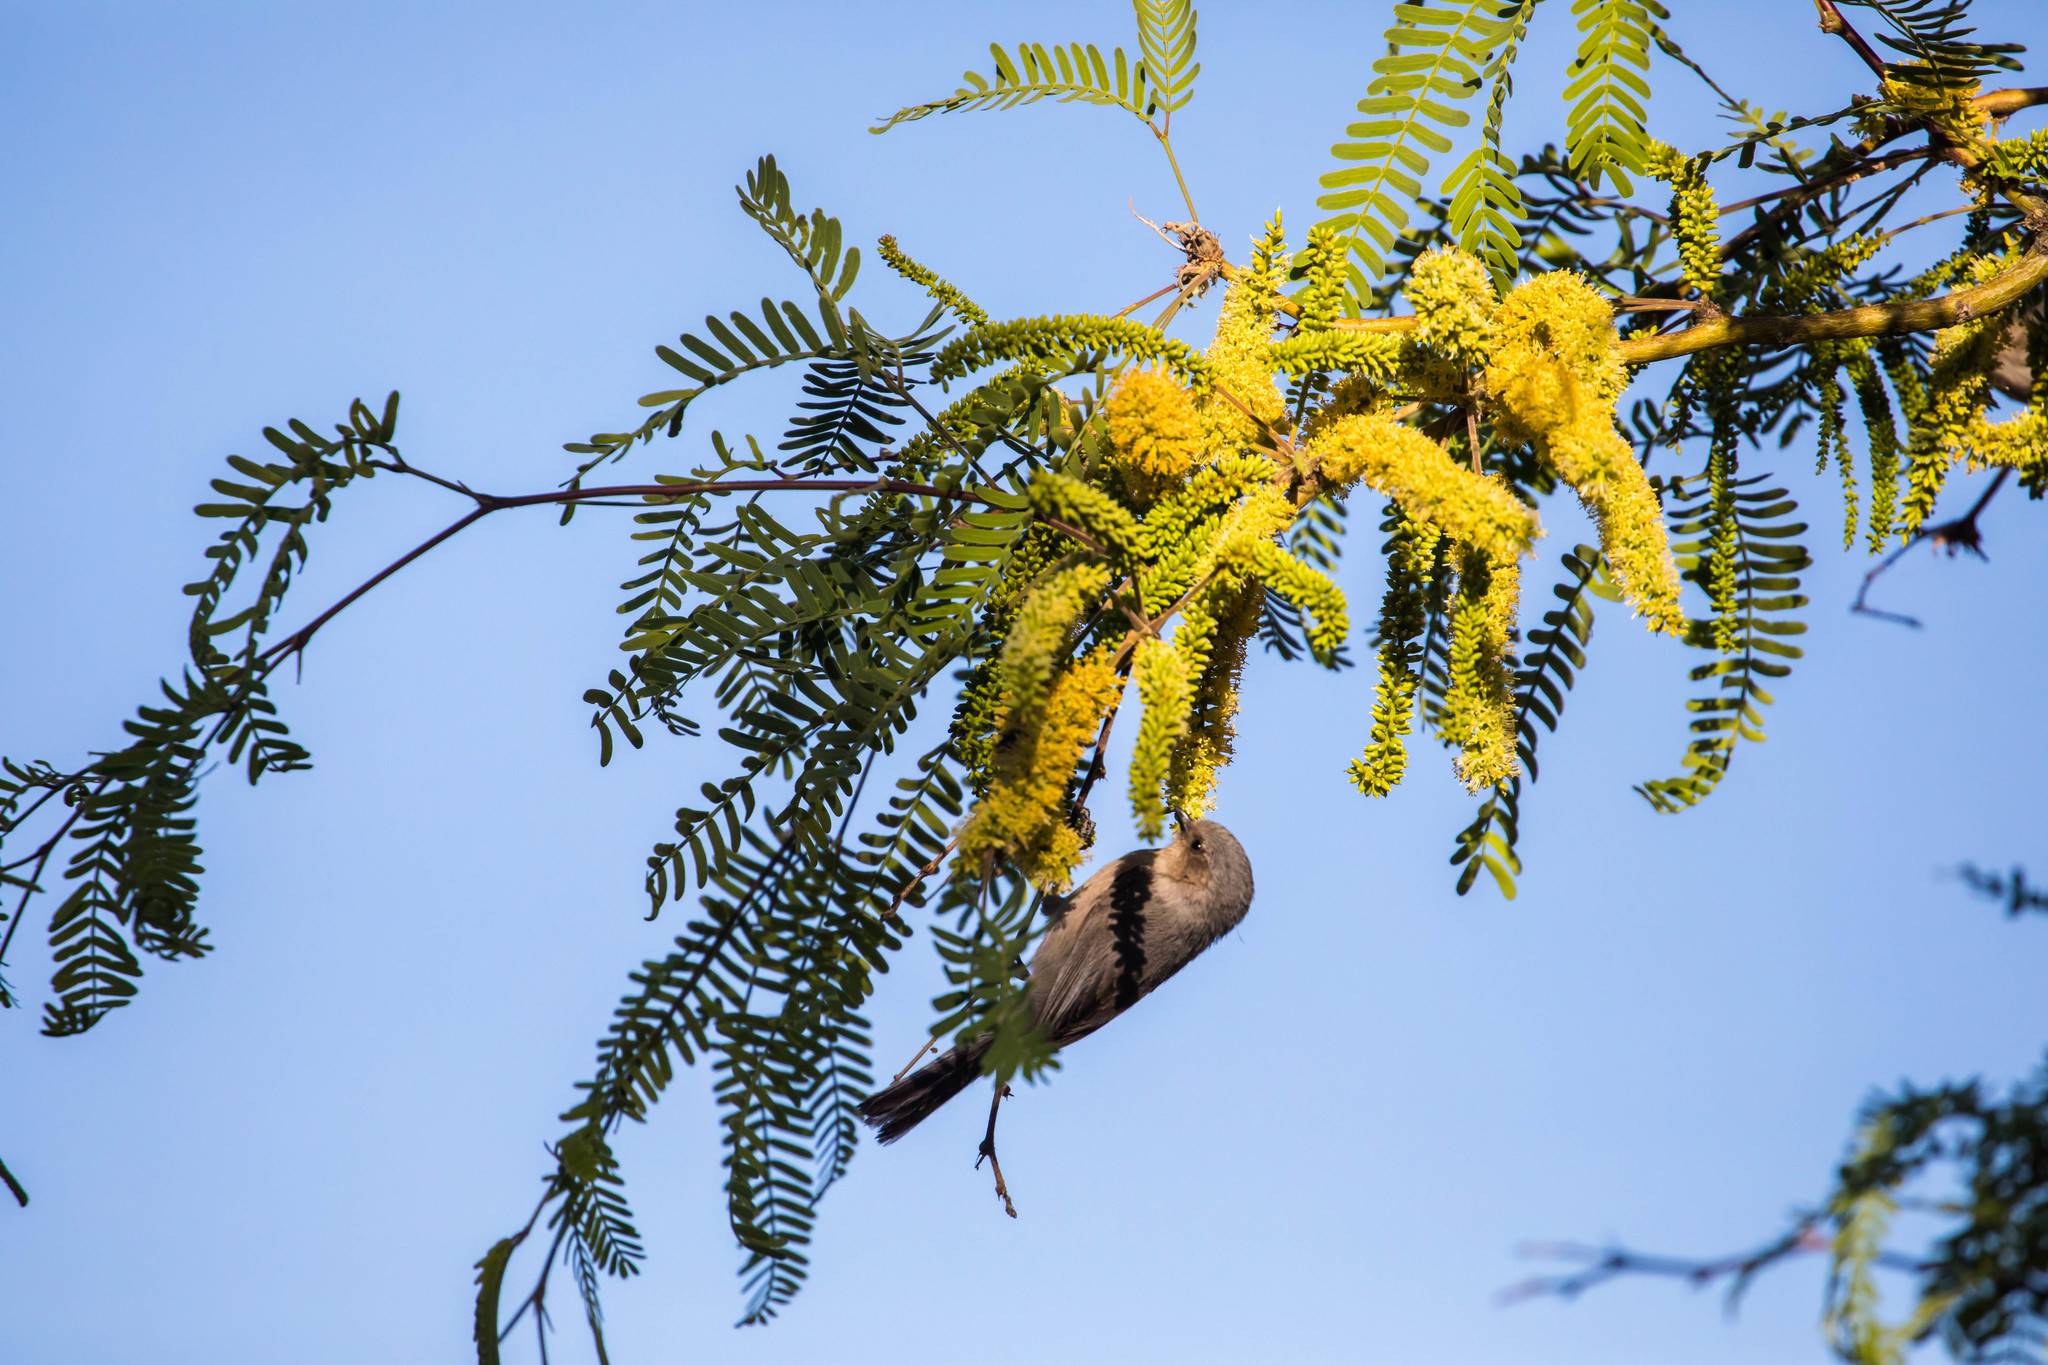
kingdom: Animalia
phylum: Chordata
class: Aves
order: Passeriformes
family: Aegithalidae
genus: Psaltriparus
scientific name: Psaltriparus minimus
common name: American bushtit
